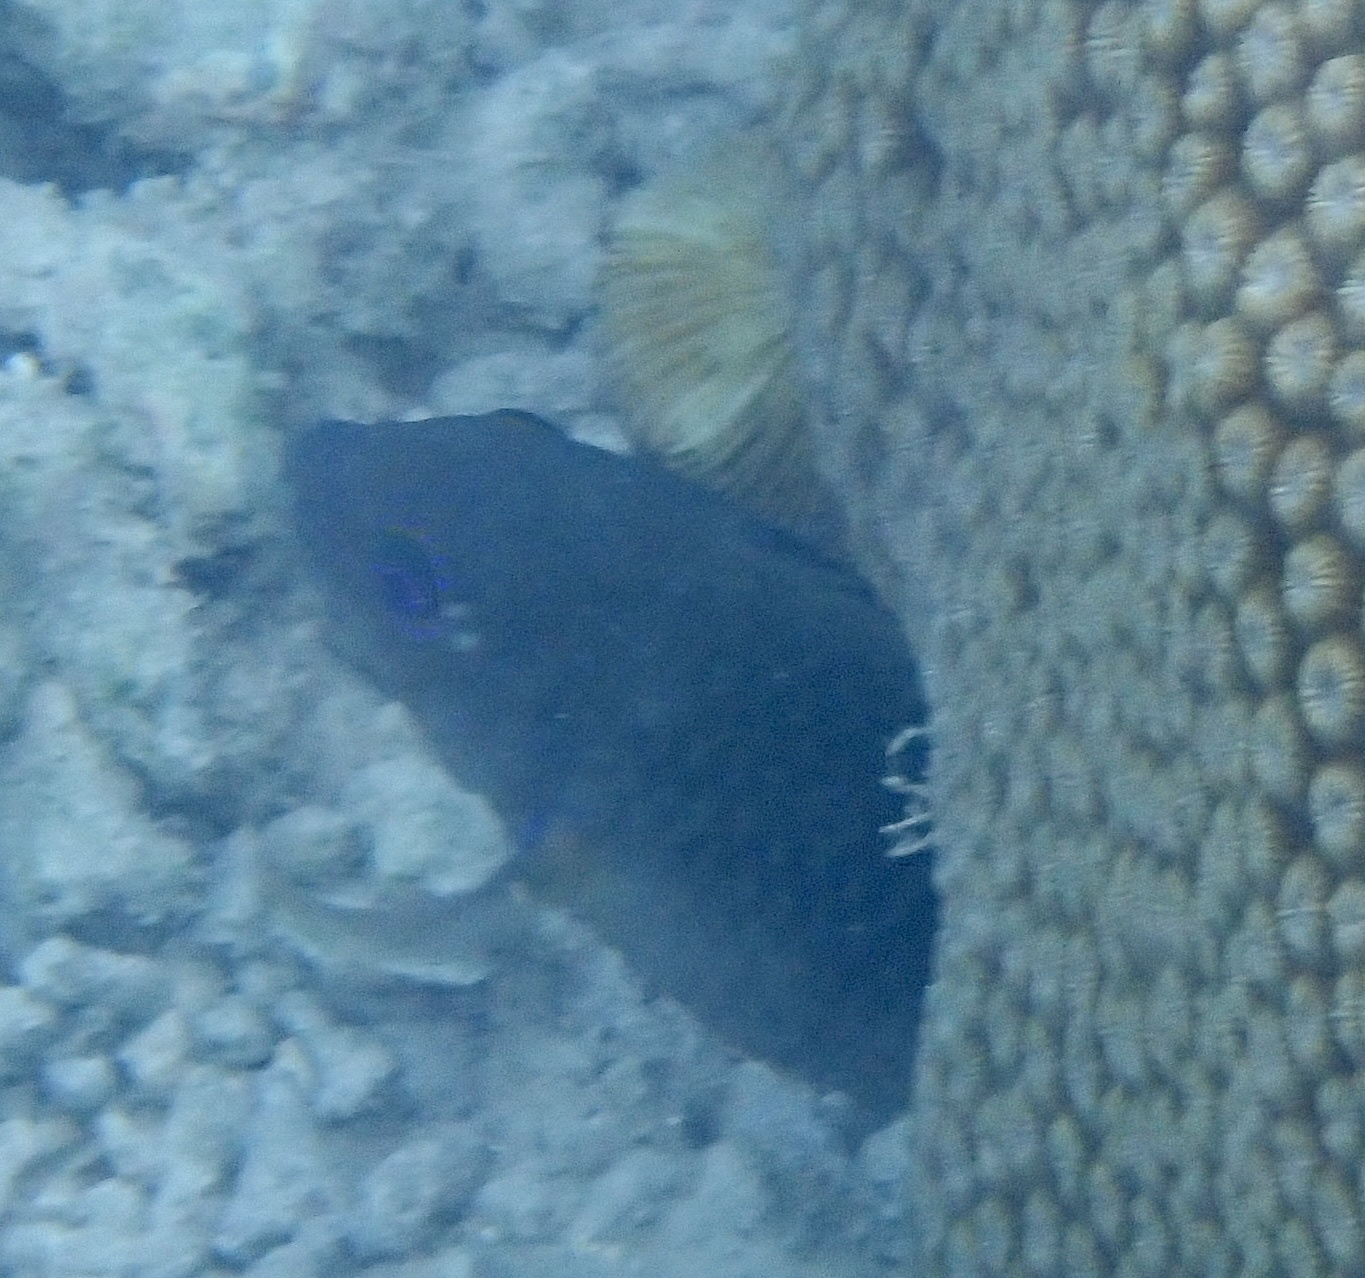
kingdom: Animalia
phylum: Chordata
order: Perciformes
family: Pomacentridae
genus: Hemiglyphidodon
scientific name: Hemiglyphidodon plagiometopon
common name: Lagoon damsel
